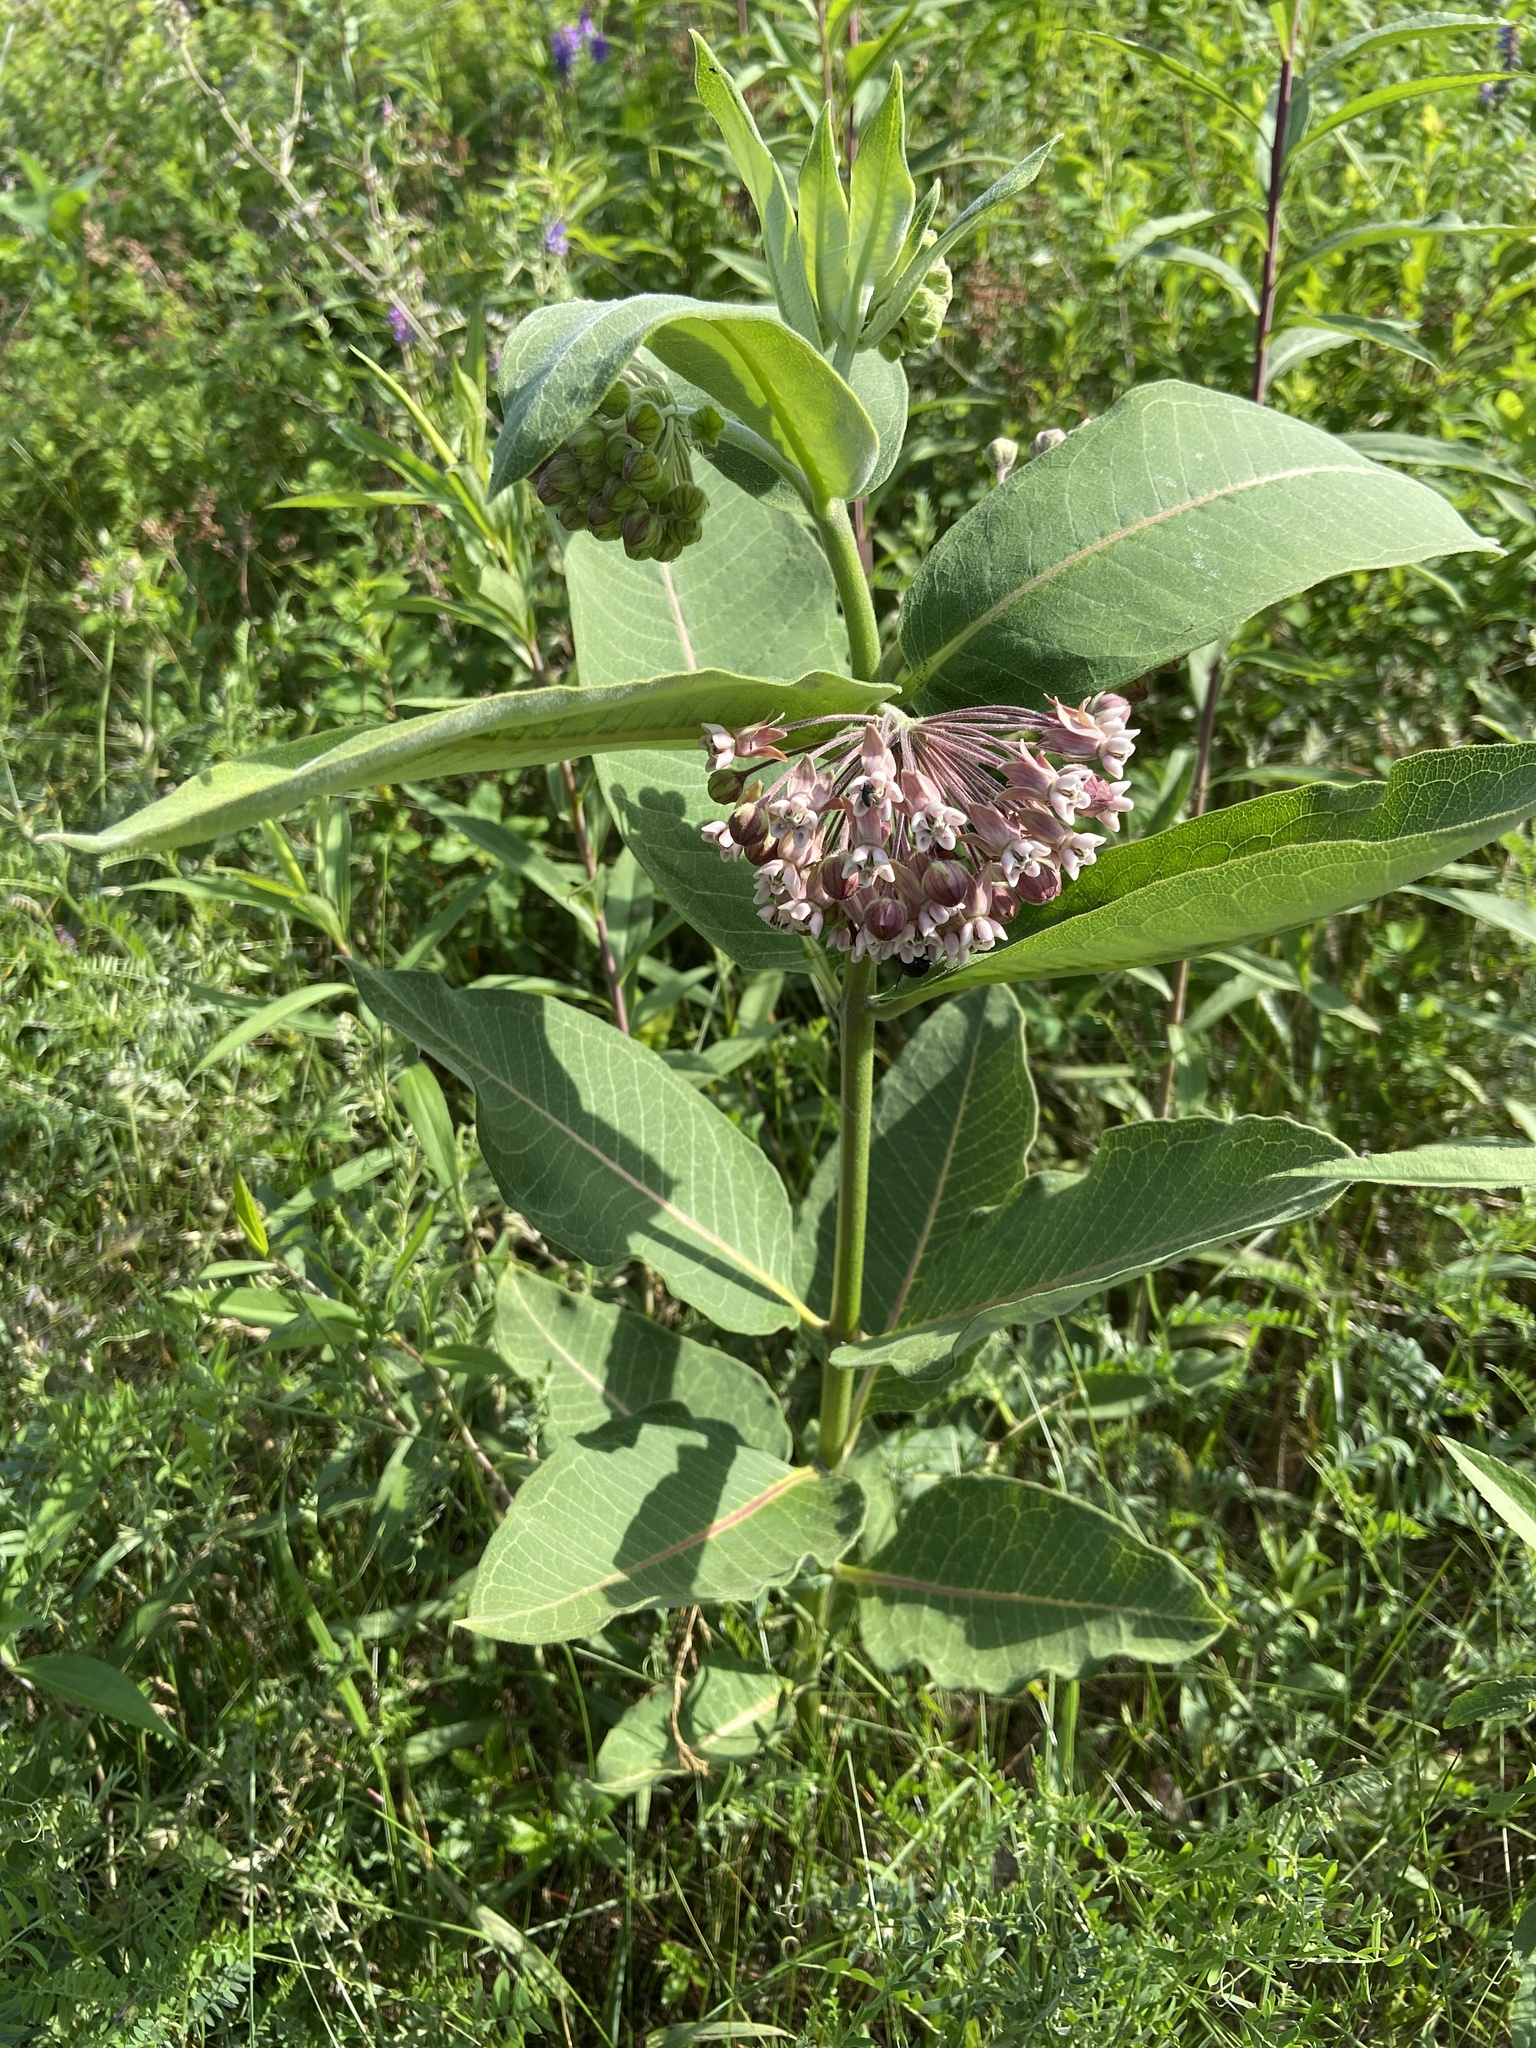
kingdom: Plantae
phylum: Tracheophyta
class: Magnoliopsida
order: Gentianales
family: Apocynaceae
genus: Asclepias
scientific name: Asclepias syriaca
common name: Common milkweed
